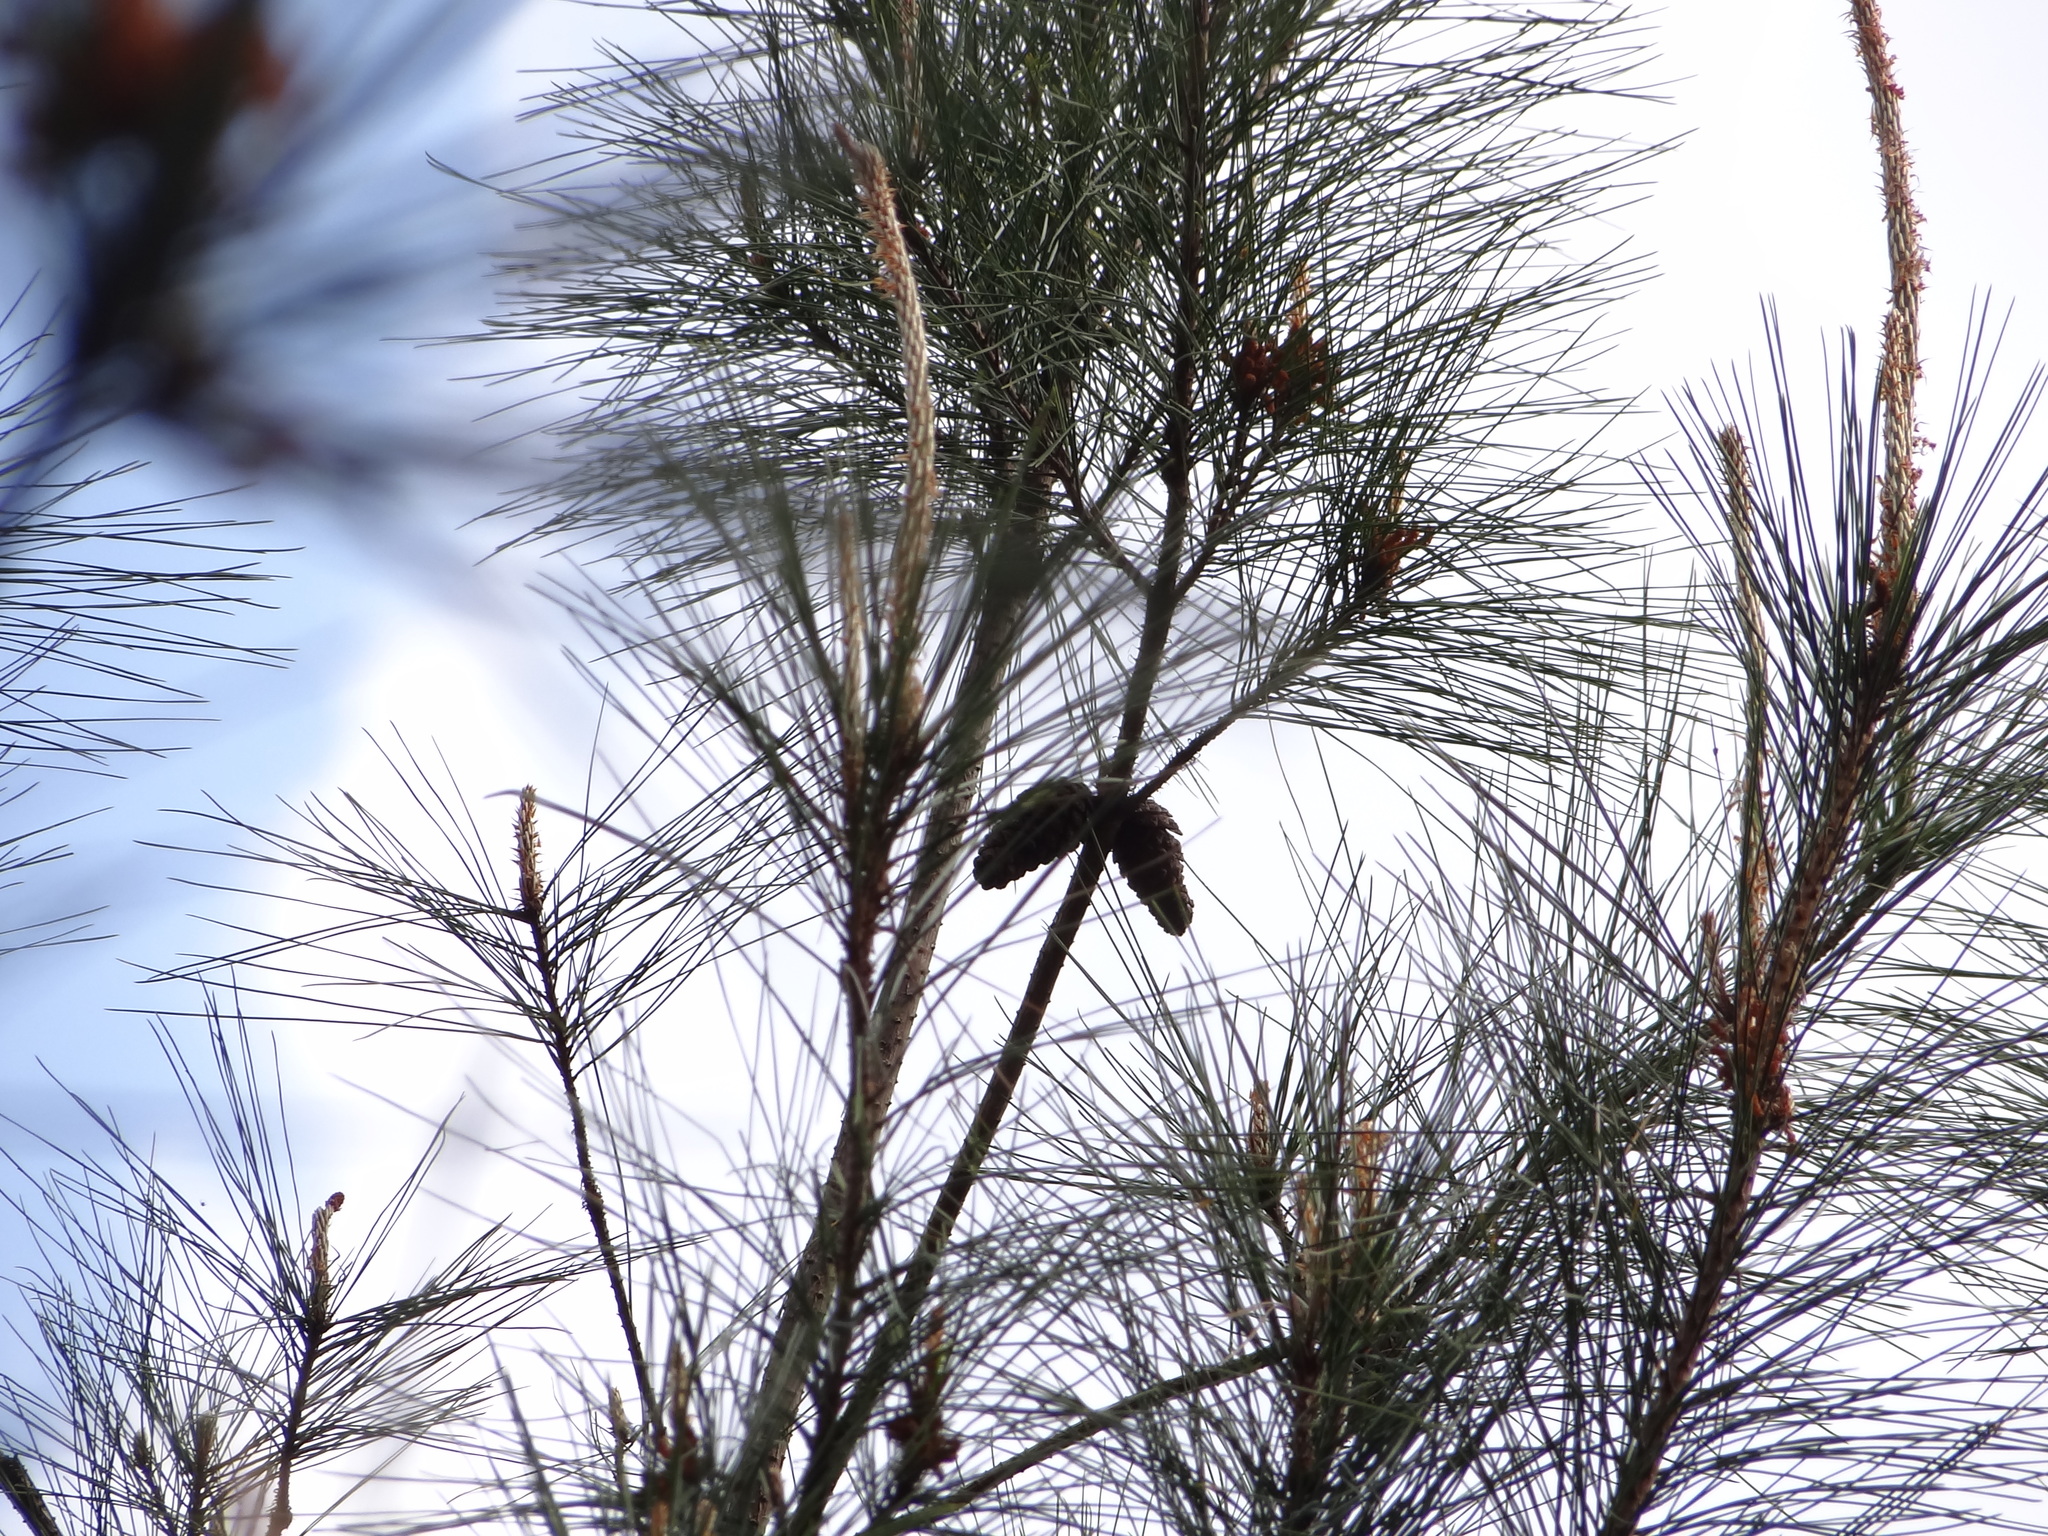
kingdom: Plantae
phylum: Tracheophyta
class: Pinopsida
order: Pinales
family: Pinaceae
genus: Pinus
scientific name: Pinus taiwanensis
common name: Formosa pine
